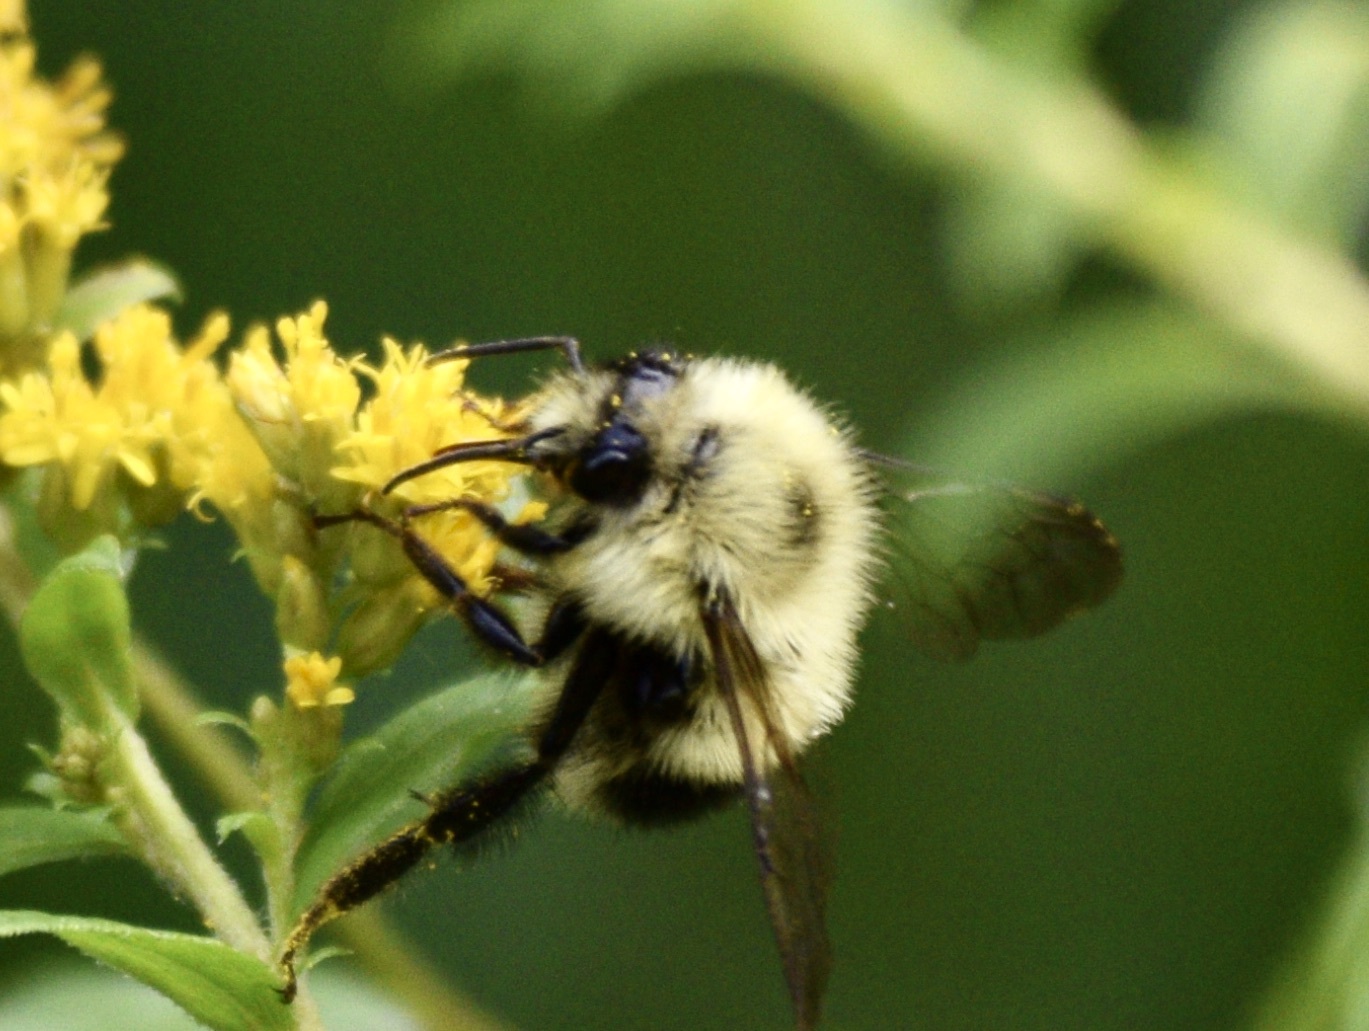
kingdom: Animalia
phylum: Arthropoda
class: Insecta
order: Hymenoptera
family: Apidae
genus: Pyrobombus
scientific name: Pyrobombus
